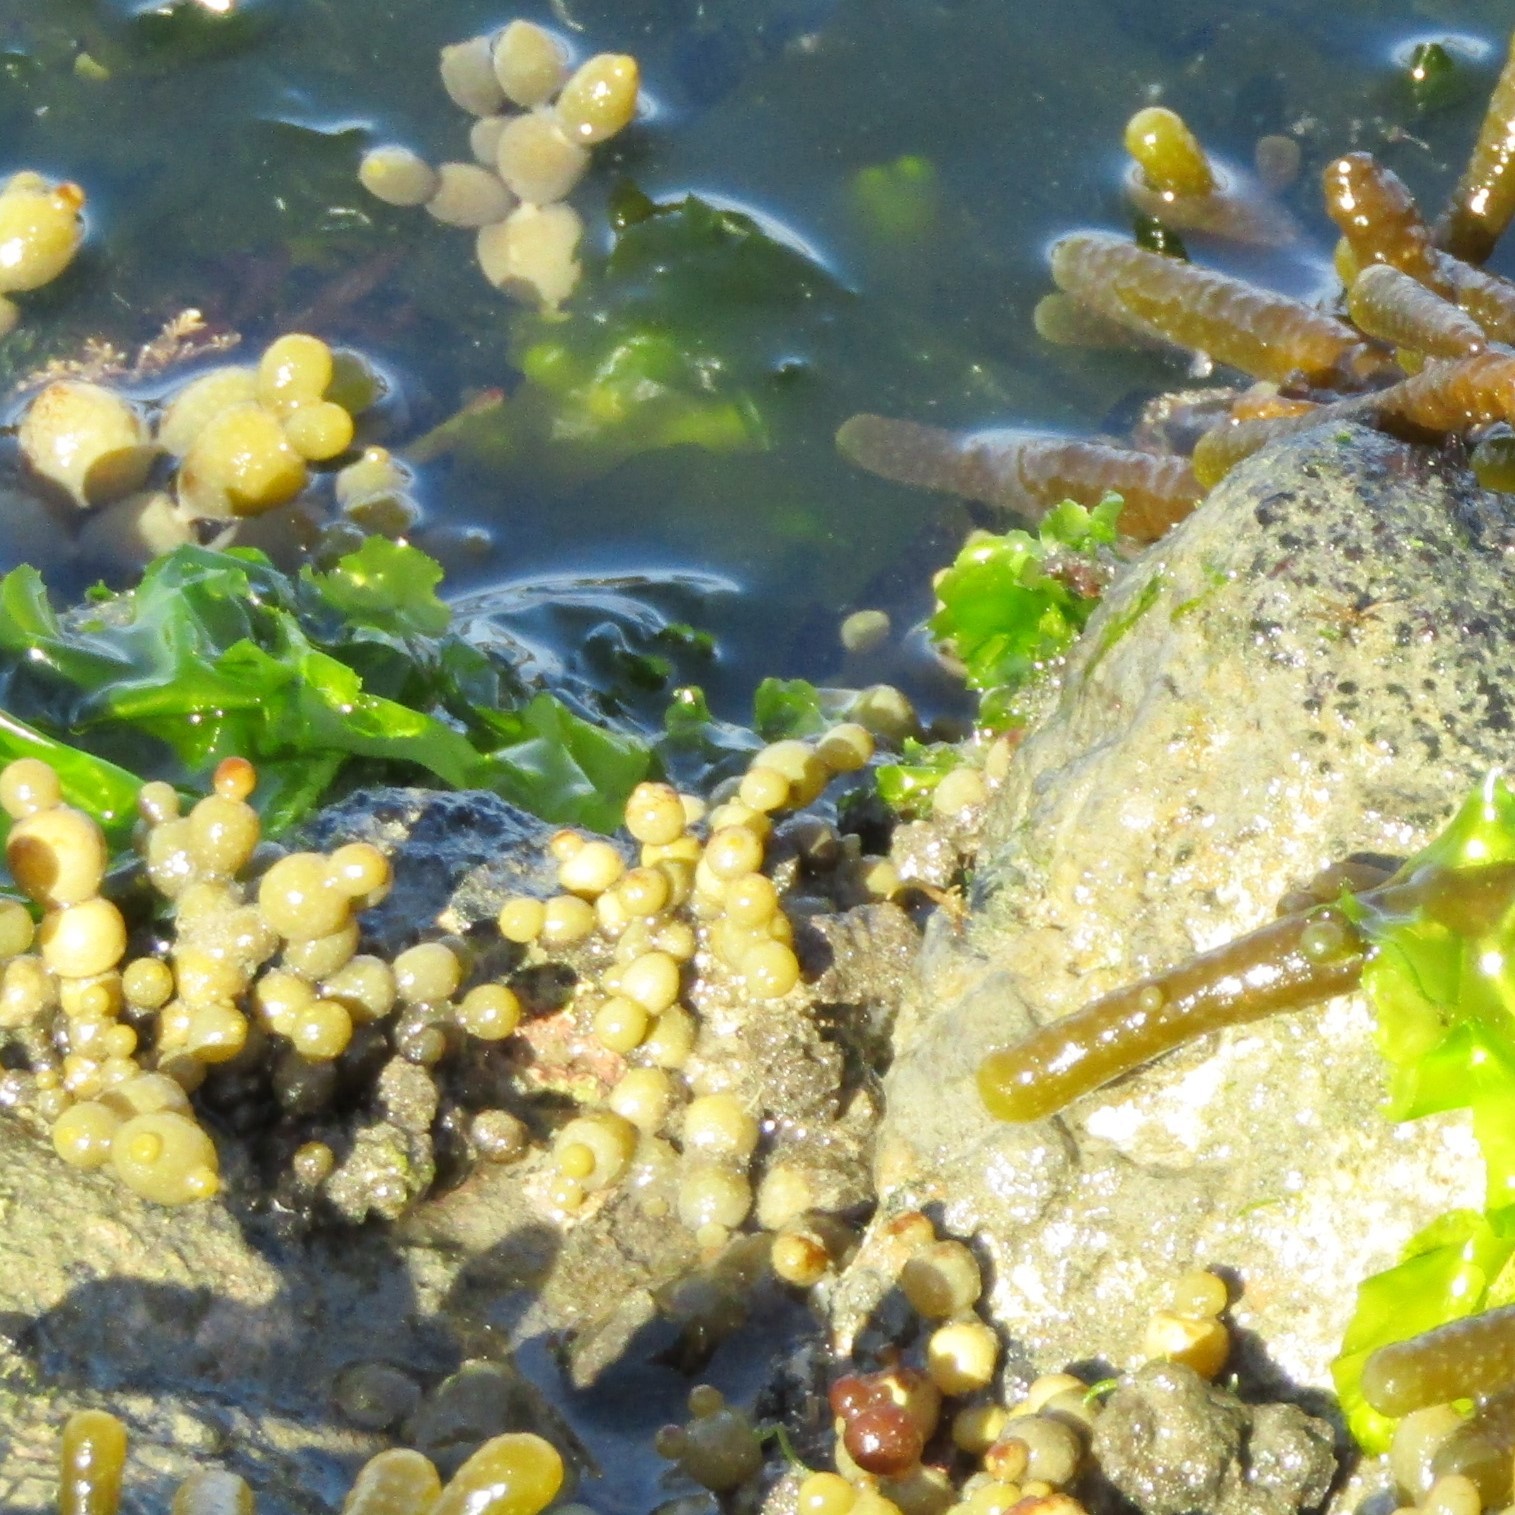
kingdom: Chromista
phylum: Ochrophyta
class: Phaeophyceae
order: Fucales
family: Hormosiraceae
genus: Hormosira
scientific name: Hormosira banksii
